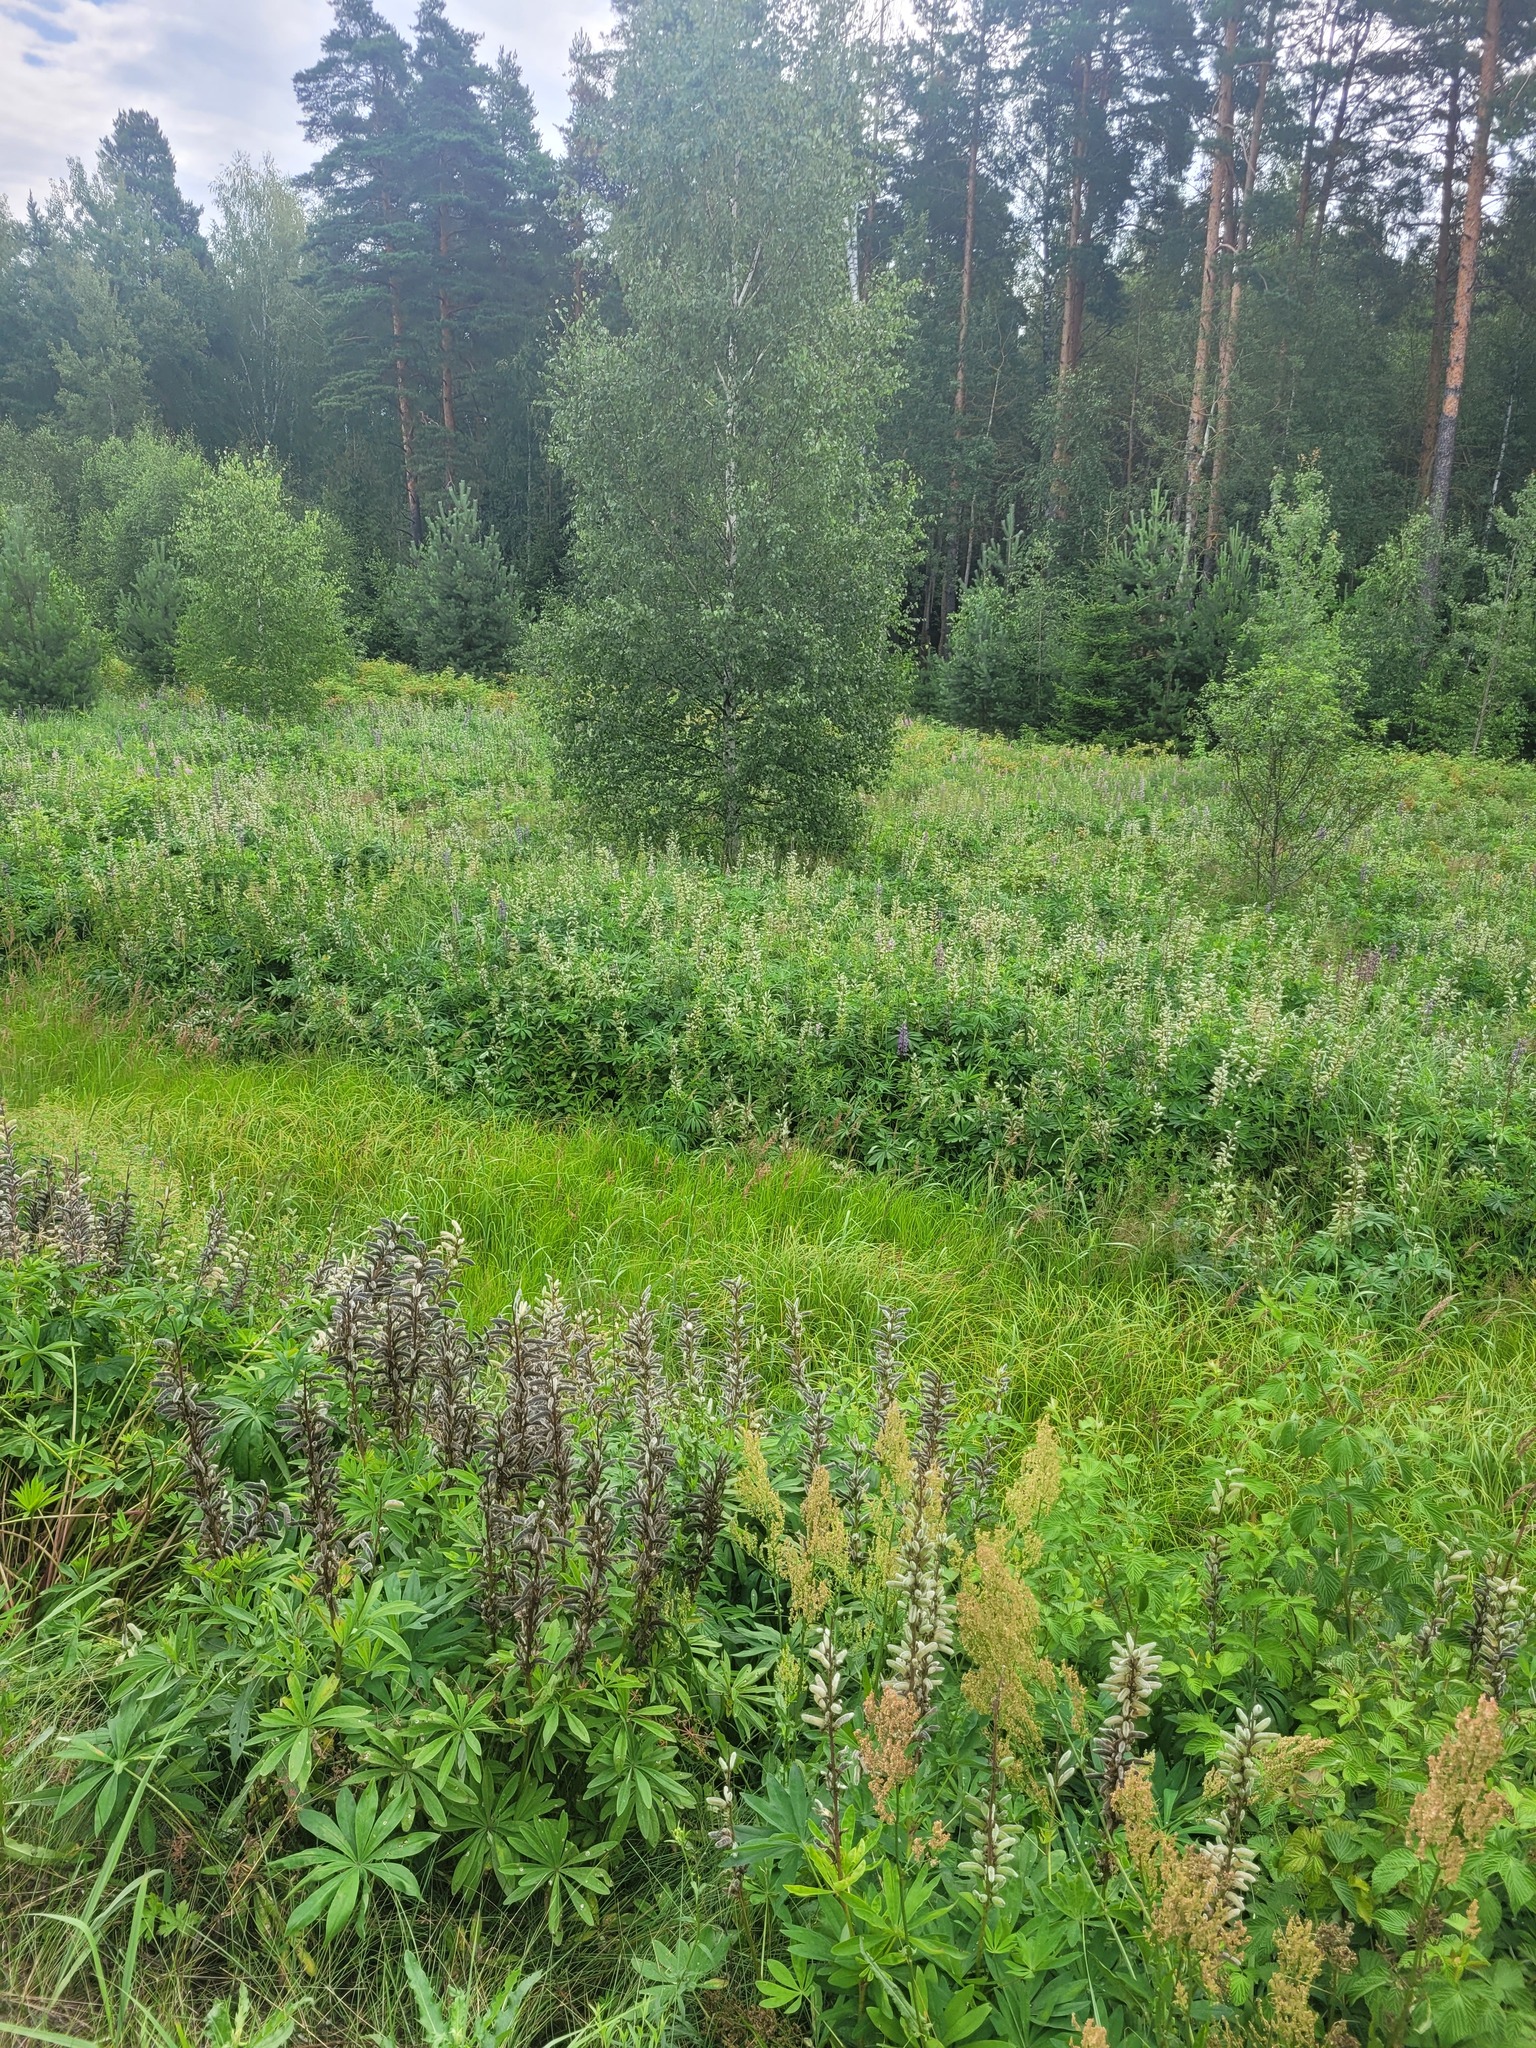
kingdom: Plantae
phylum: Tracheophyta
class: Magnoliopsida
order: Fabales
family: Fabaceae
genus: Lupinus
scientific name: Lupinus polyphyllus
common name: Garden lupin
